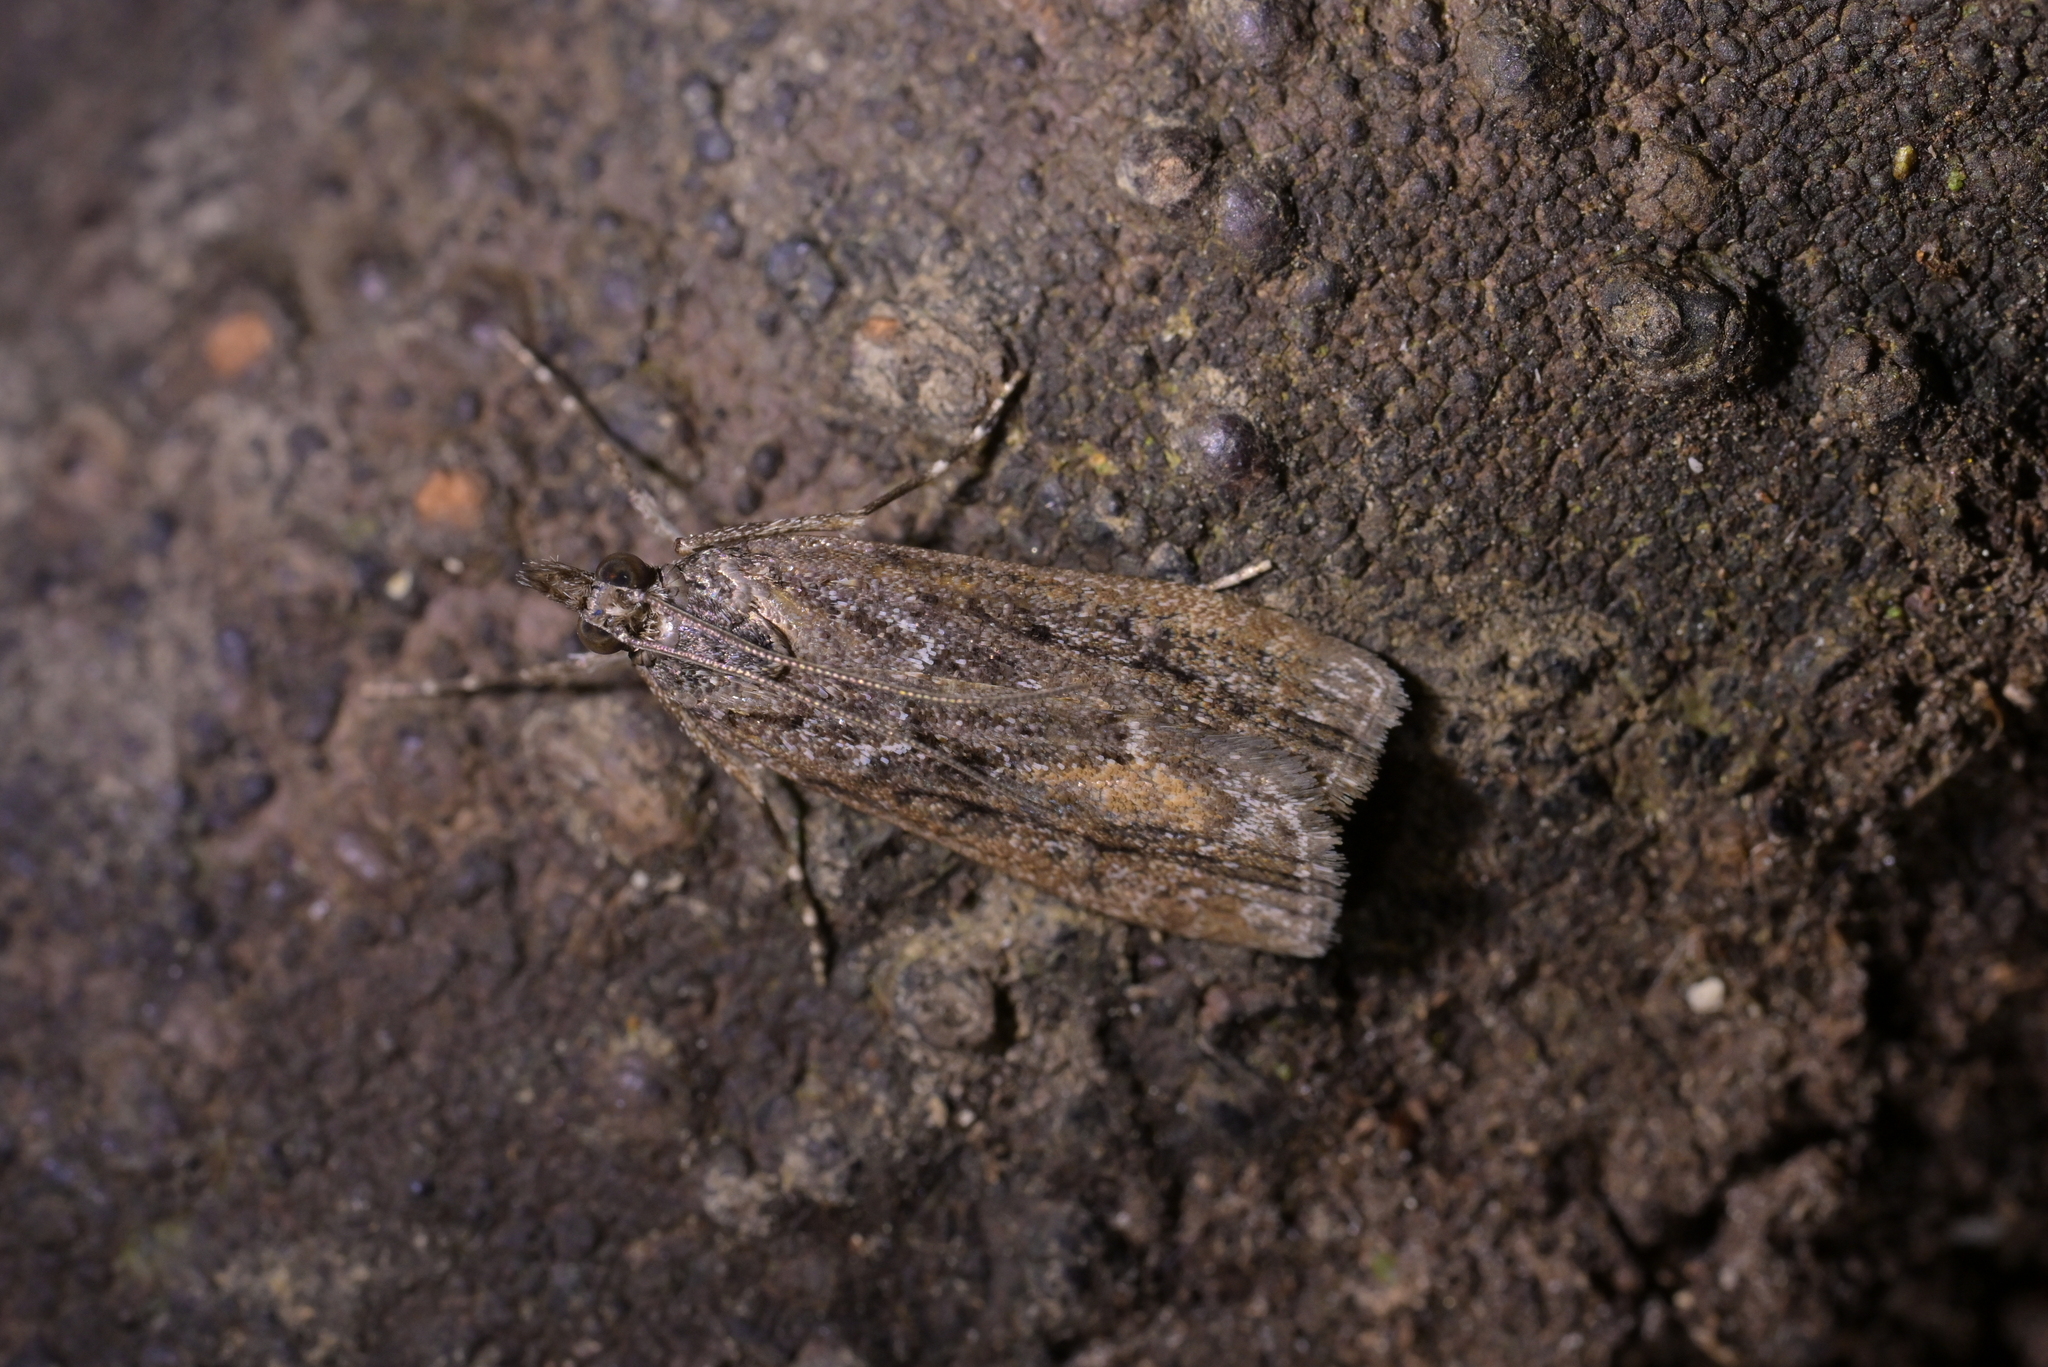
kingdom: Animalia
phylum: Arthropoda
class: Insecta
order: Lepidoptera
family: Crambidae
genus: Eudonia
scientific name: Eudonia submarginalis
